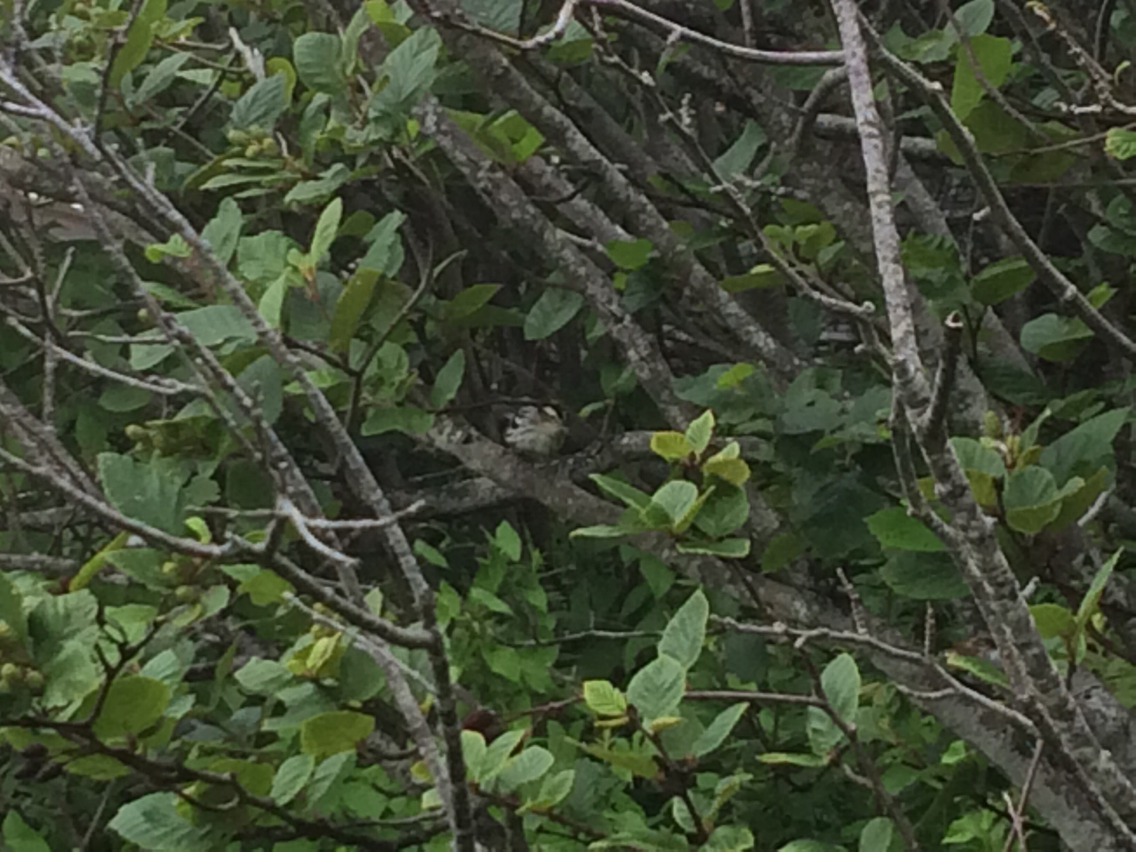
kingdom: Animalia
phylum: Chordata
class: Aves
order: Passeriformes
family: Parulidae
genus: Mniotilta
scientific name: Mniotilta varia
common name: Black-and-white warbler
